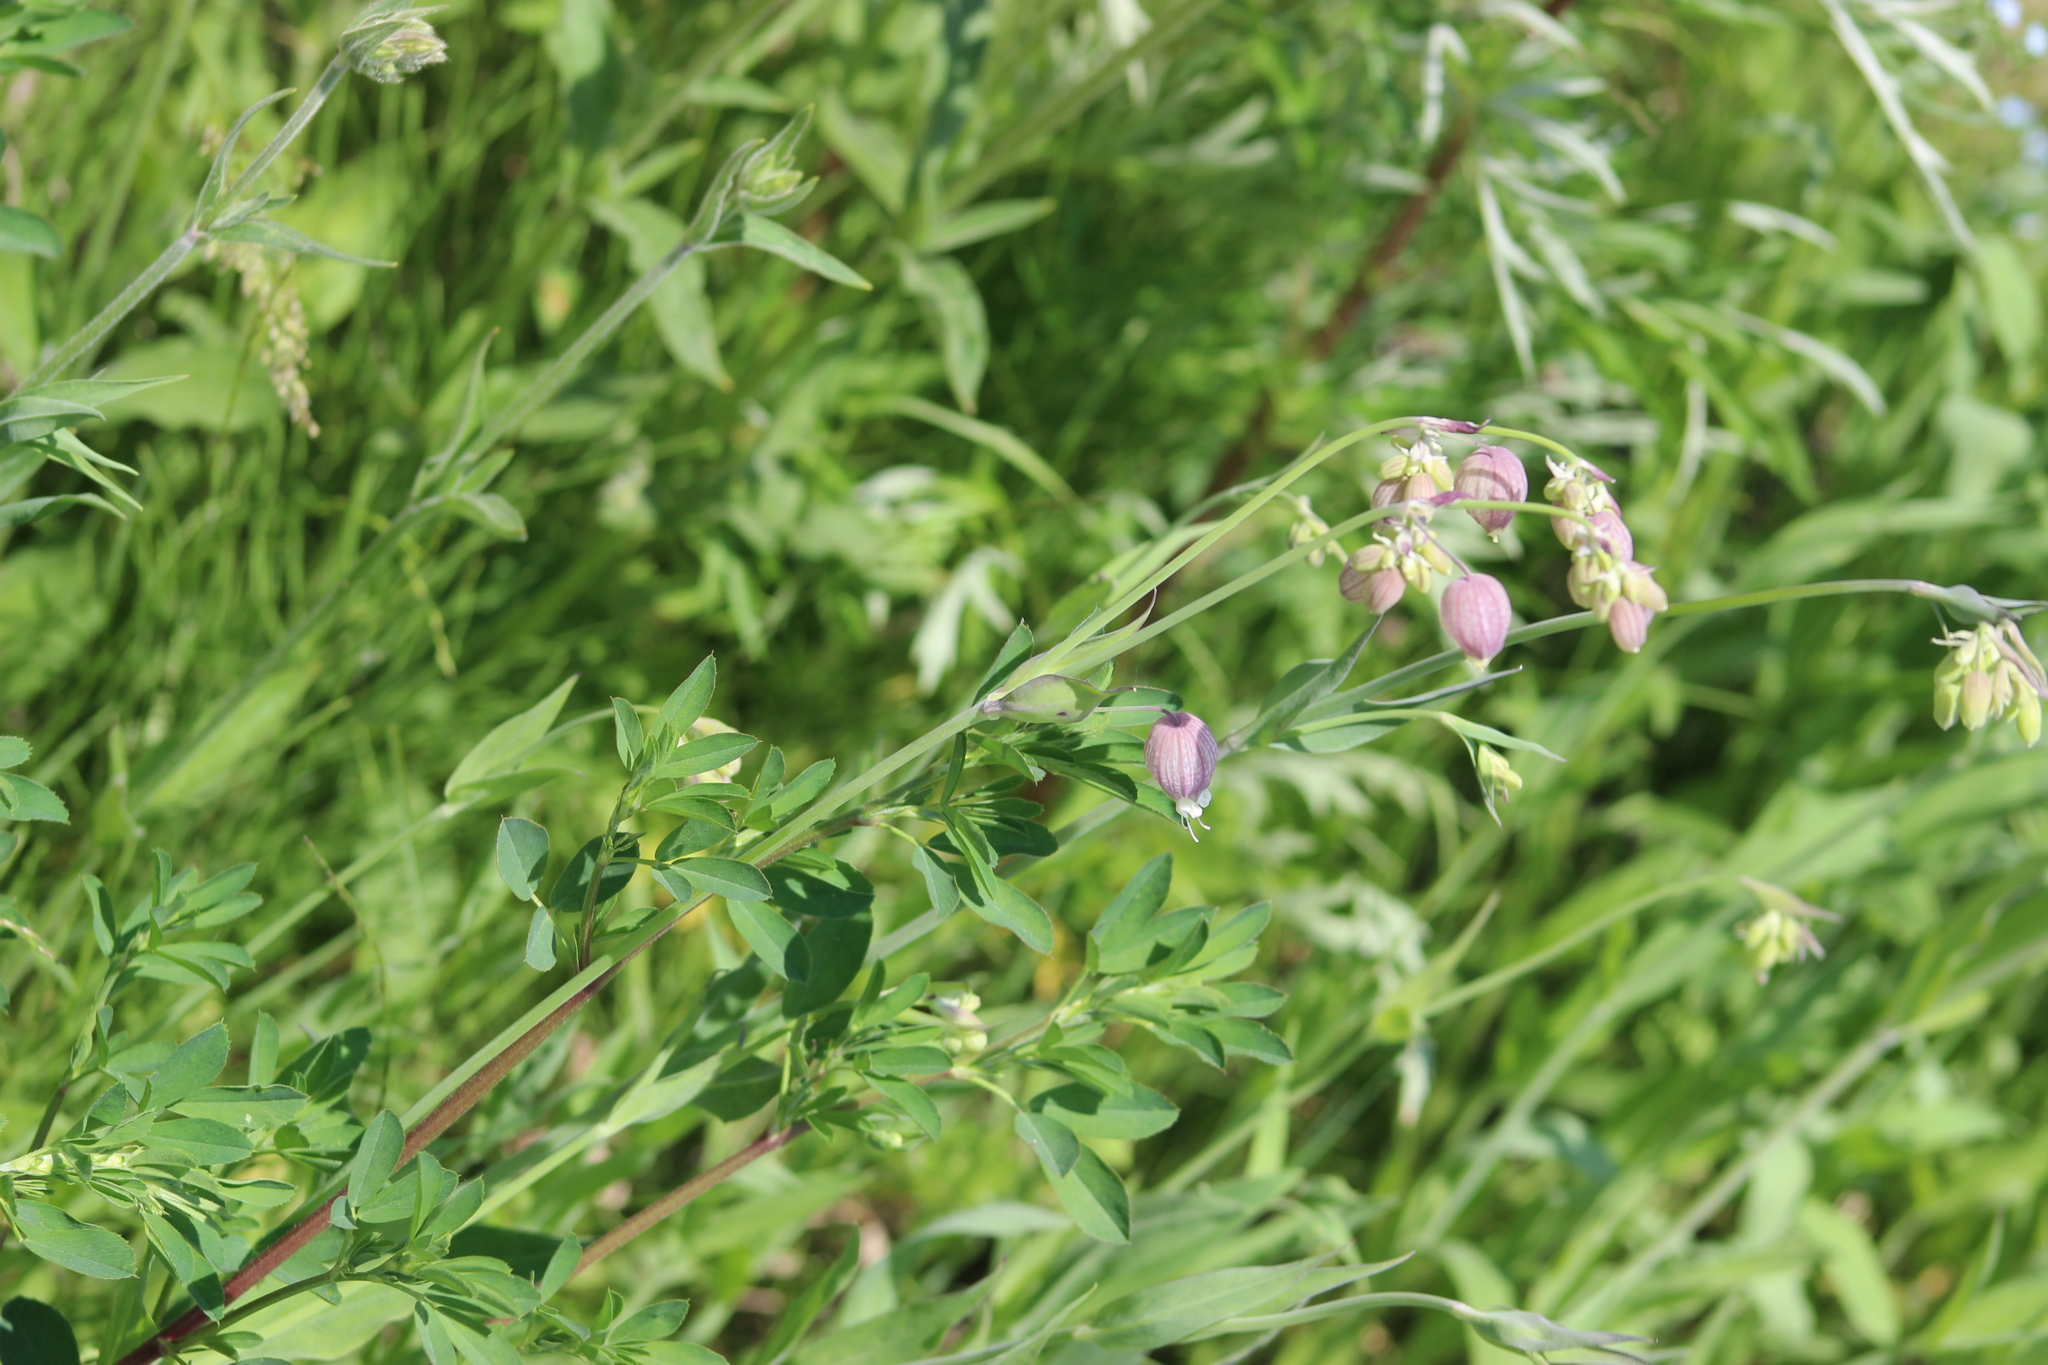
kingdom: Plantae
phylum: Tracheophyta
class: Magnoliopsida
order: Caryophyllales
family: Caryophyllaceae
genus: Silene
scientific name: Silene vulgaris
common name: Bladder campion
